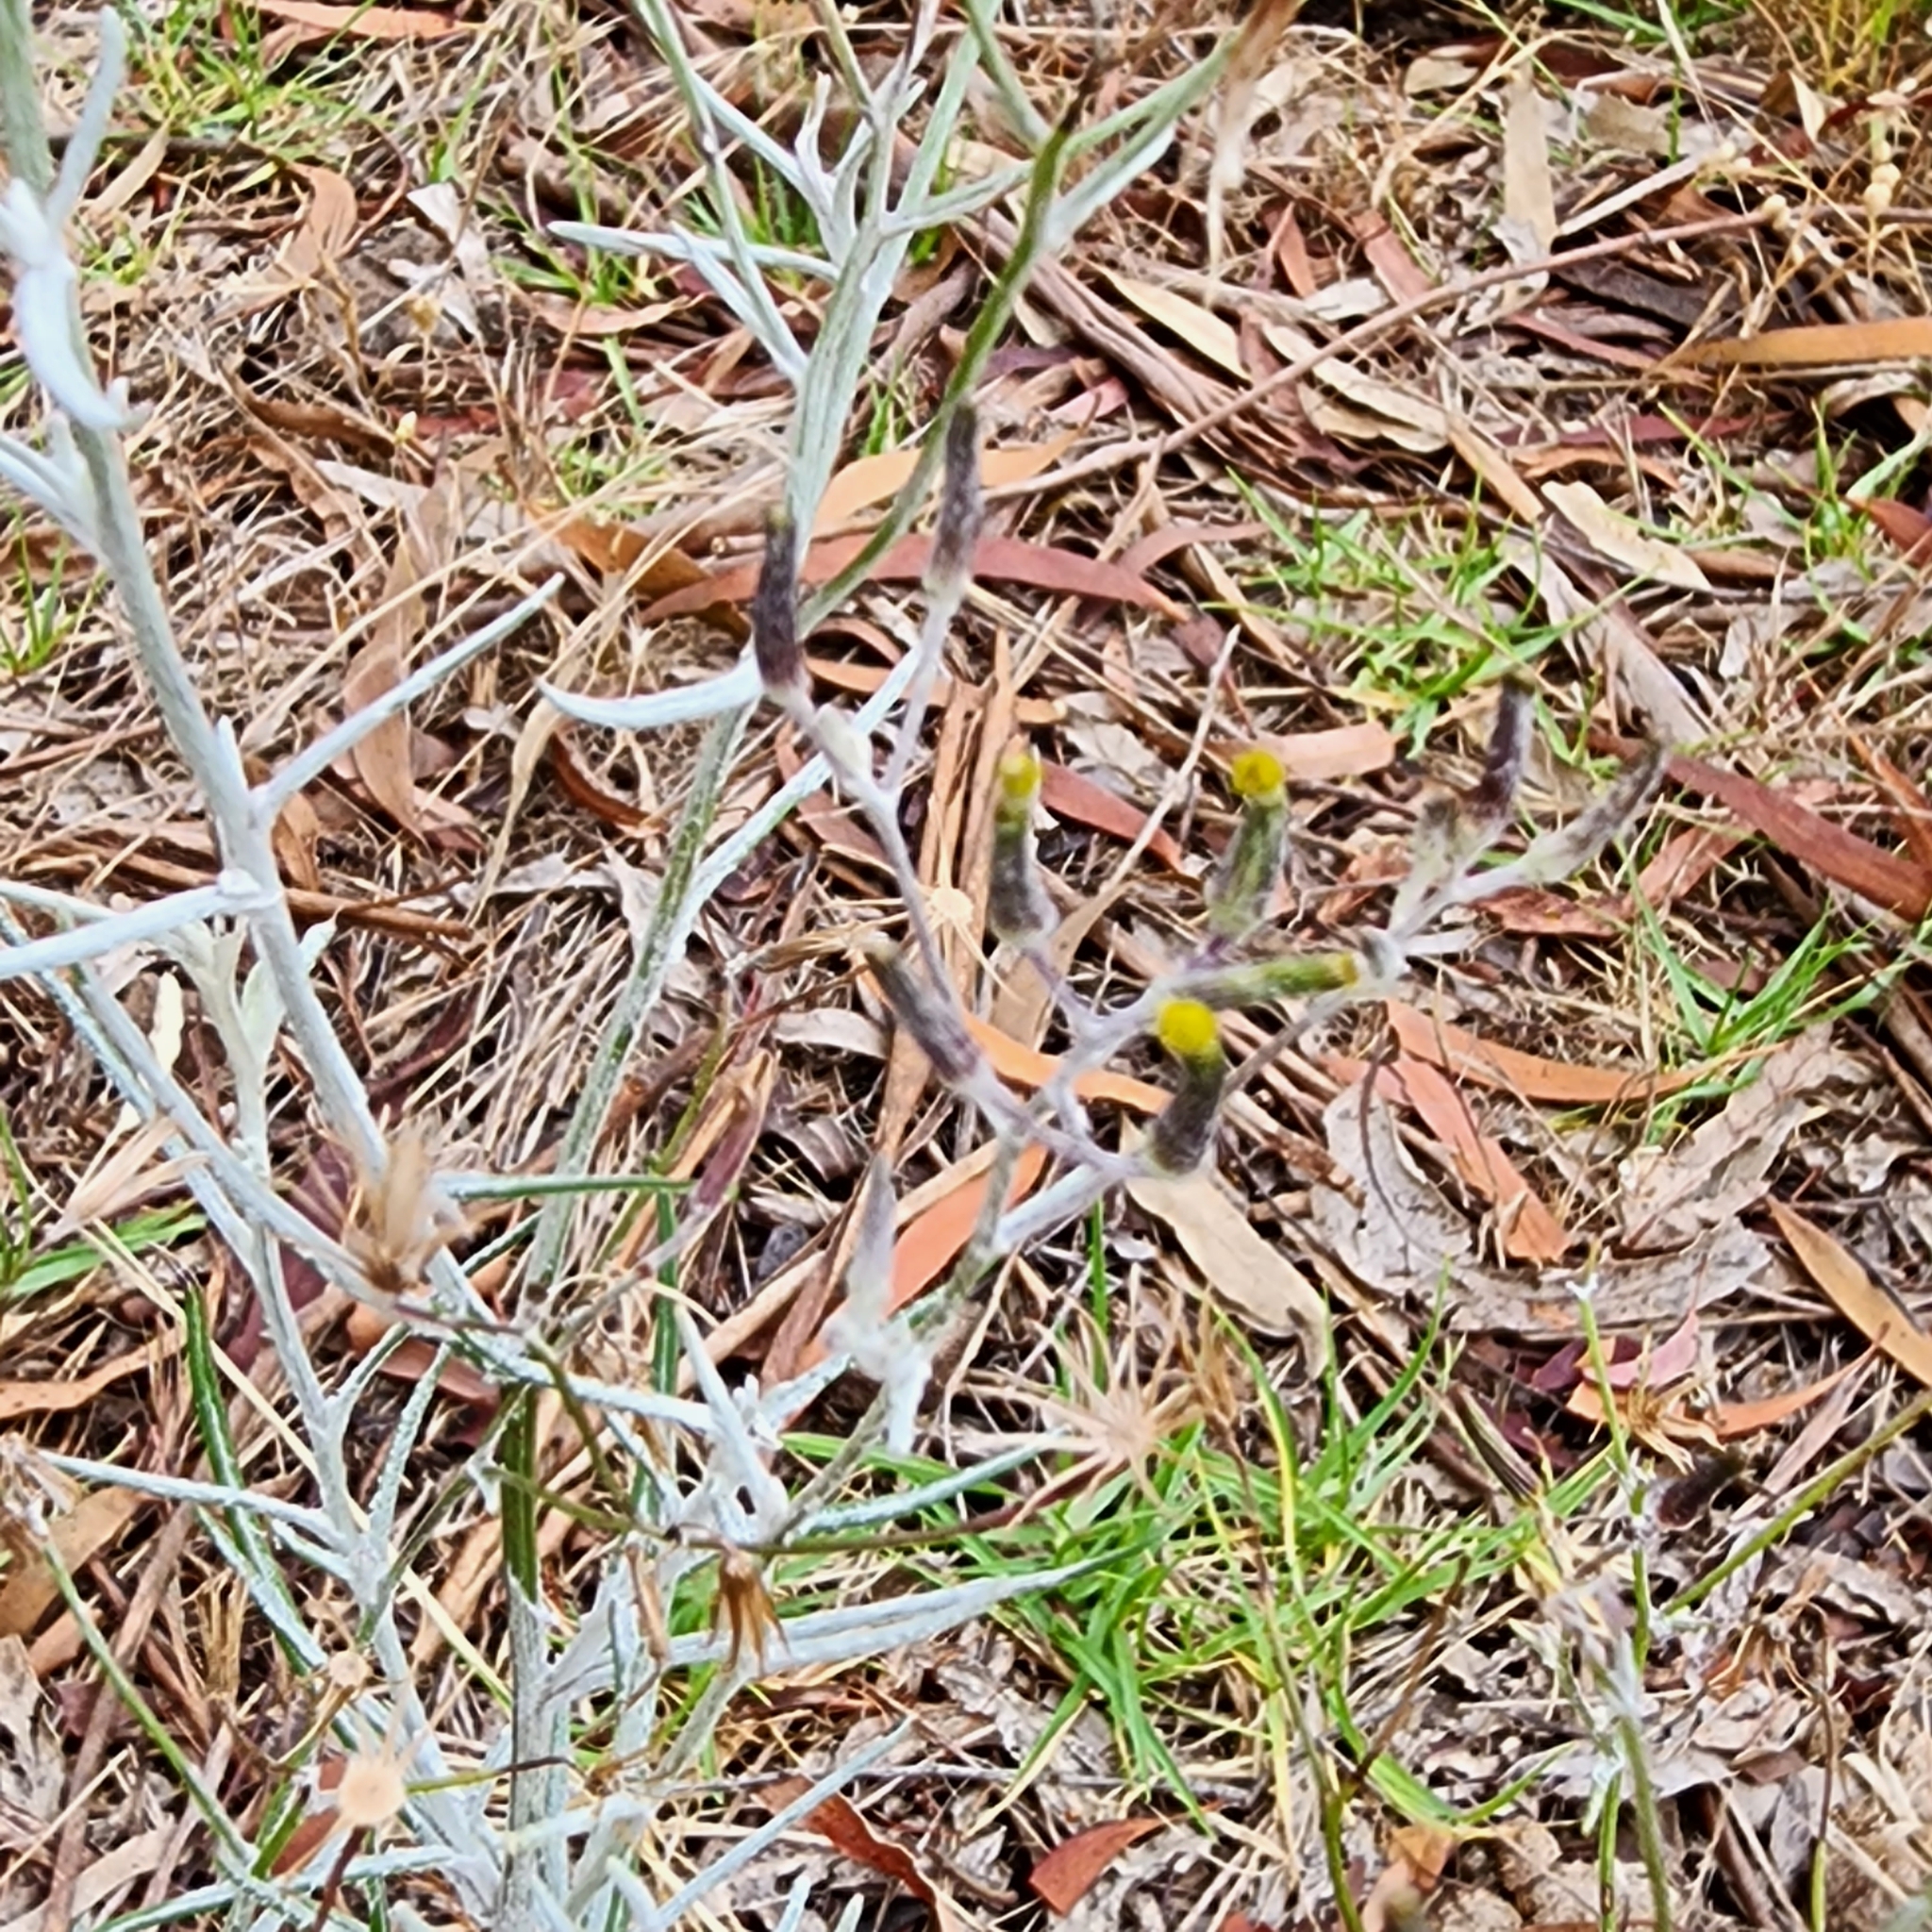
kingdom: Plantae
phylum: Tracheophyta
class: Magnoliopsida
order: Asterales
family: Asteraceae
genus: Senecio
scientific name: Senecio quadridentatus
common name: Cotton fireweed
